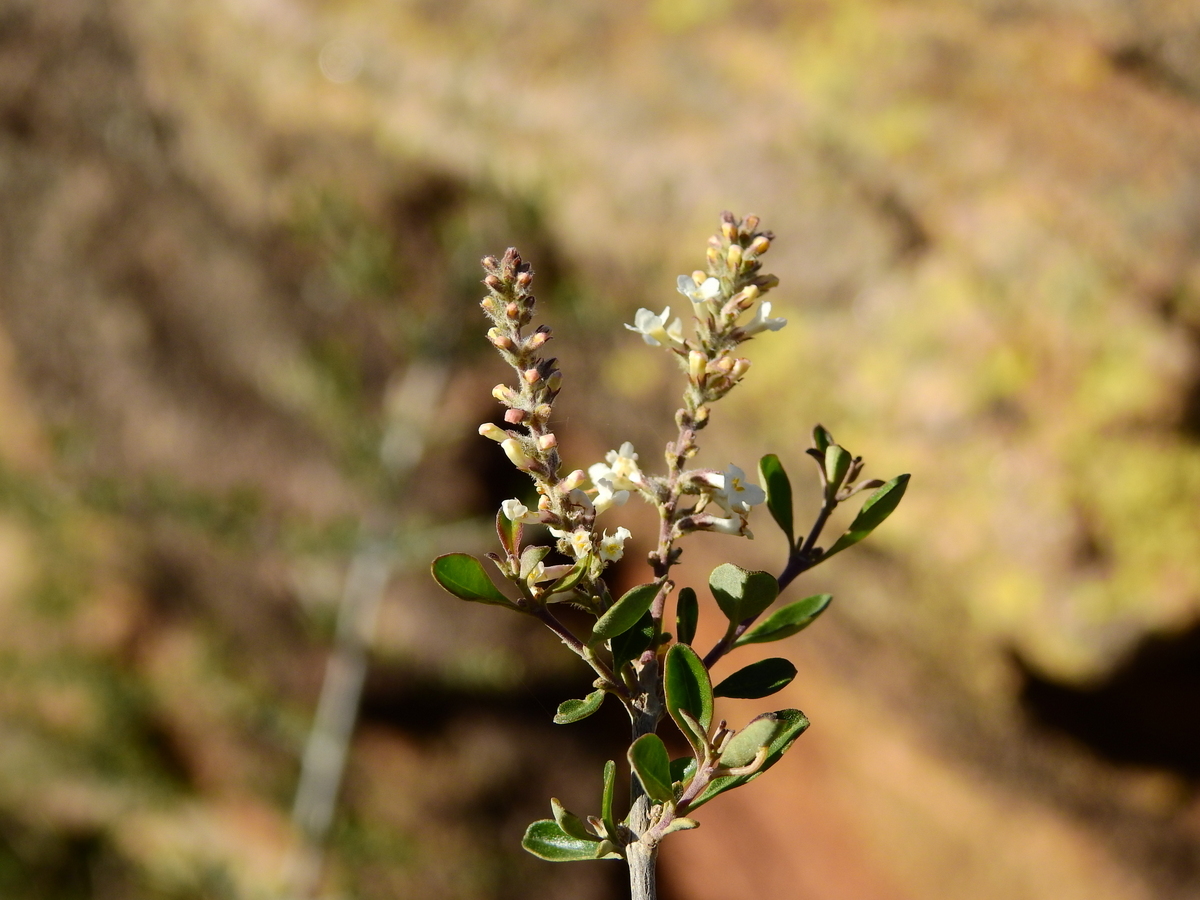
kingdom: Plantae
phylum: Tracheophyta
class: Magnoliopsida
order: Lamiales
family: Verbenaceae
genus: Aloysia
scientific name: Aloysia gratissima
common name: Common bee-brush
